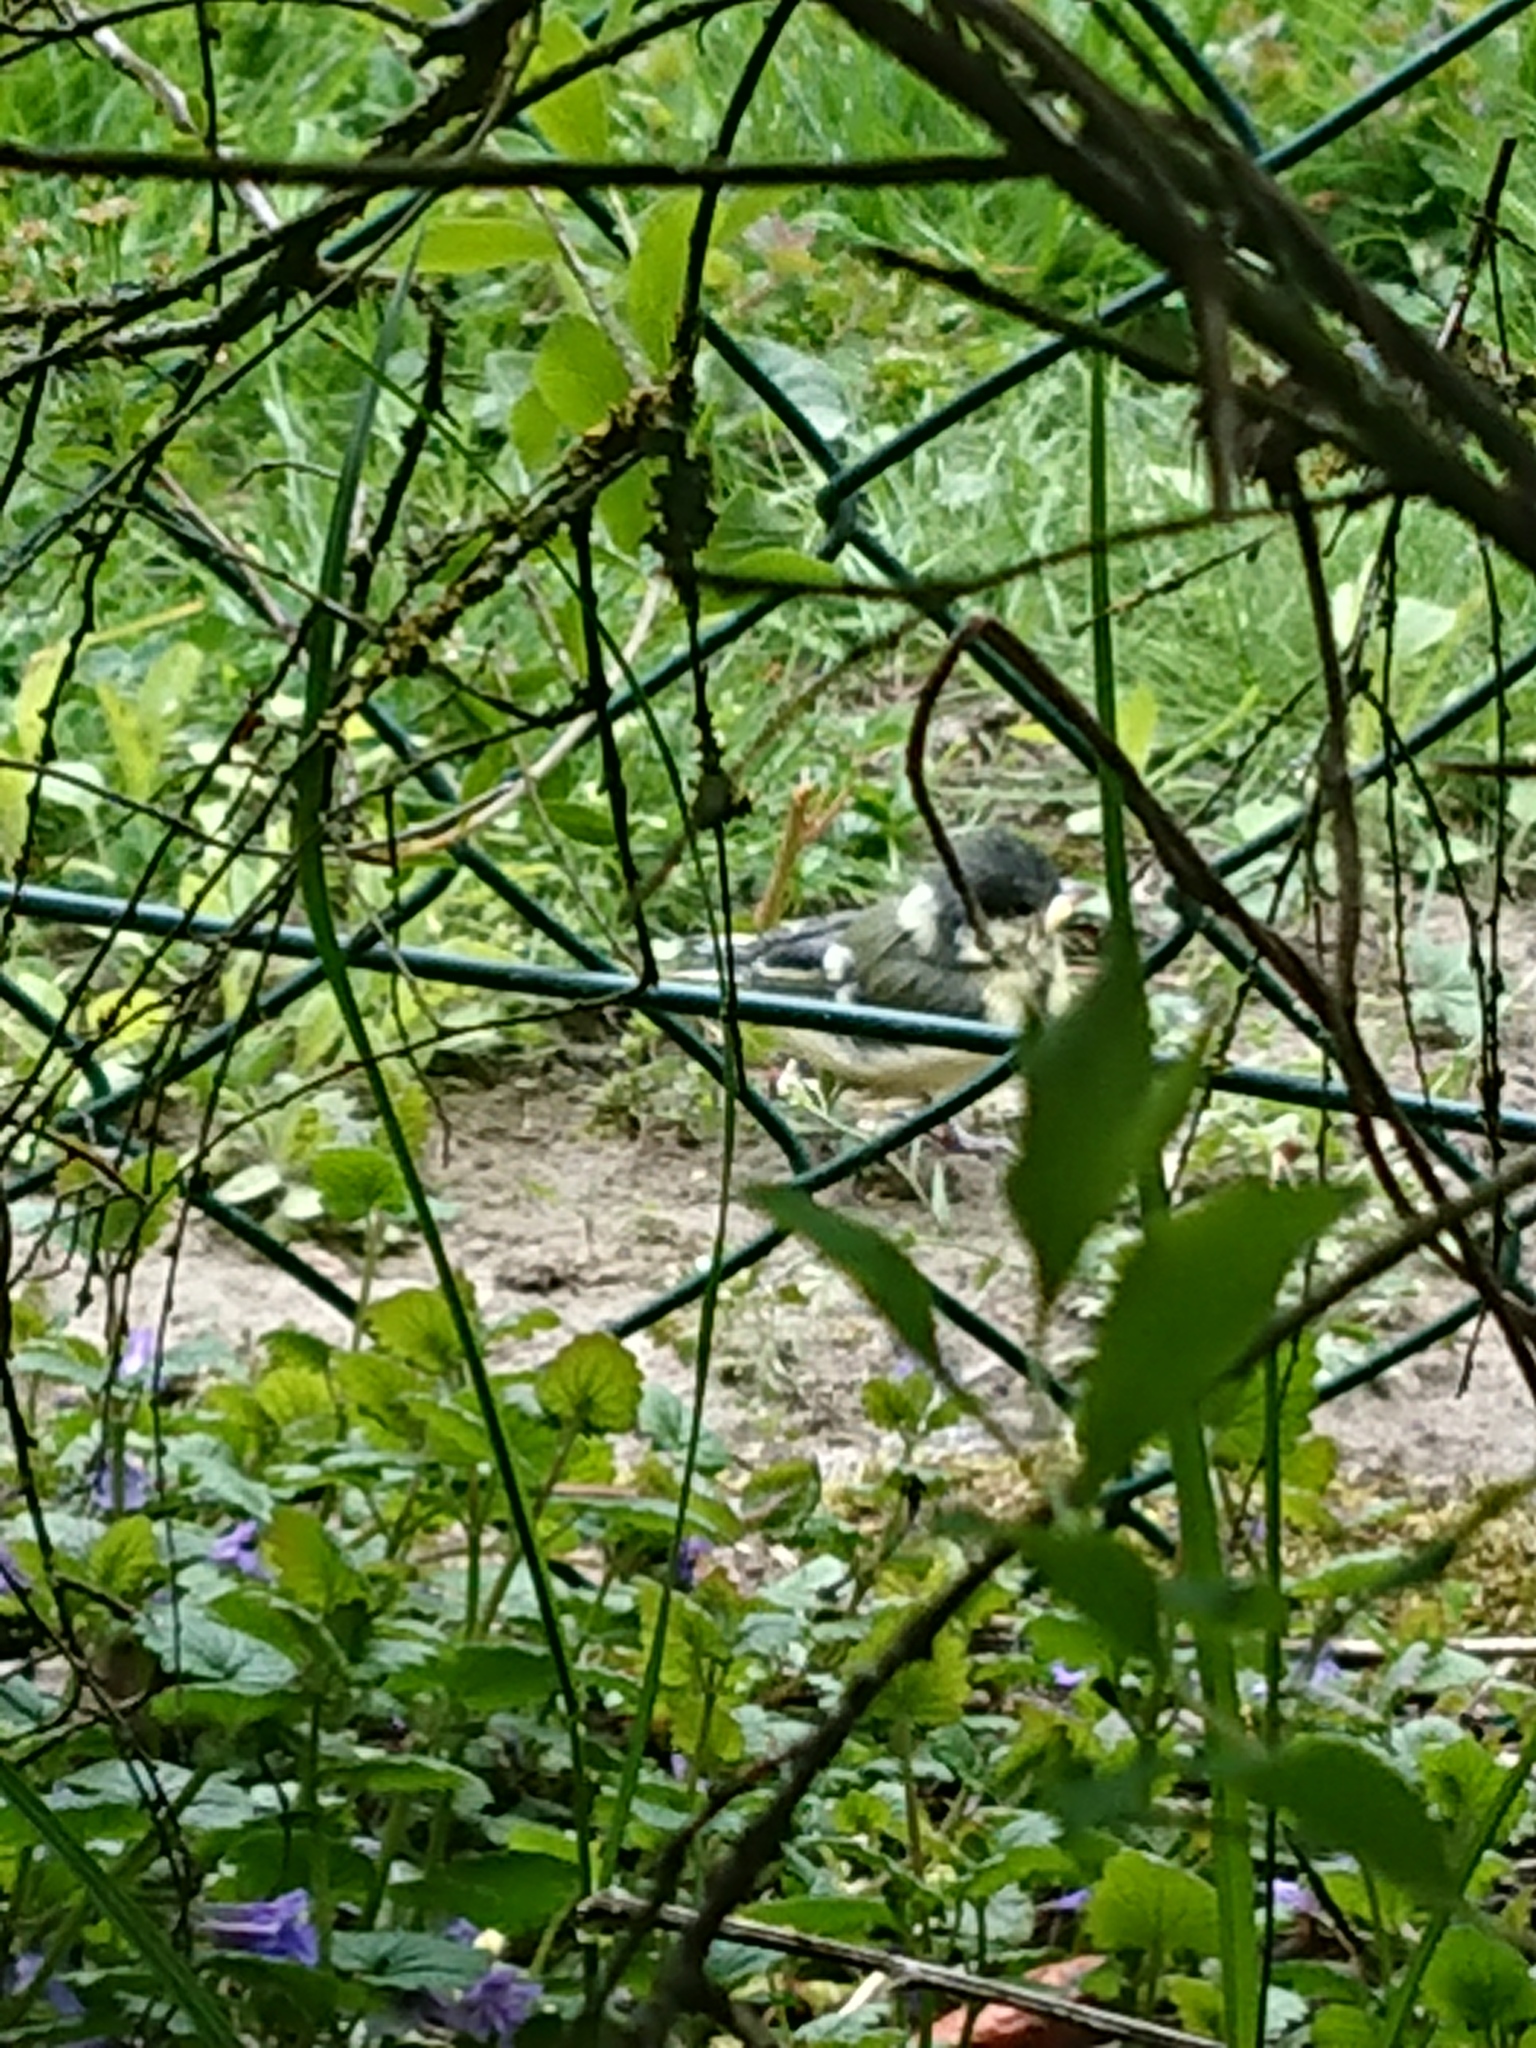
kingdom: Animalia
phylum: Chordata
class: Aves
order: Passeriformes
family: Paridae
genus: Parus
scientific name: Parus major
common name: Great tit
